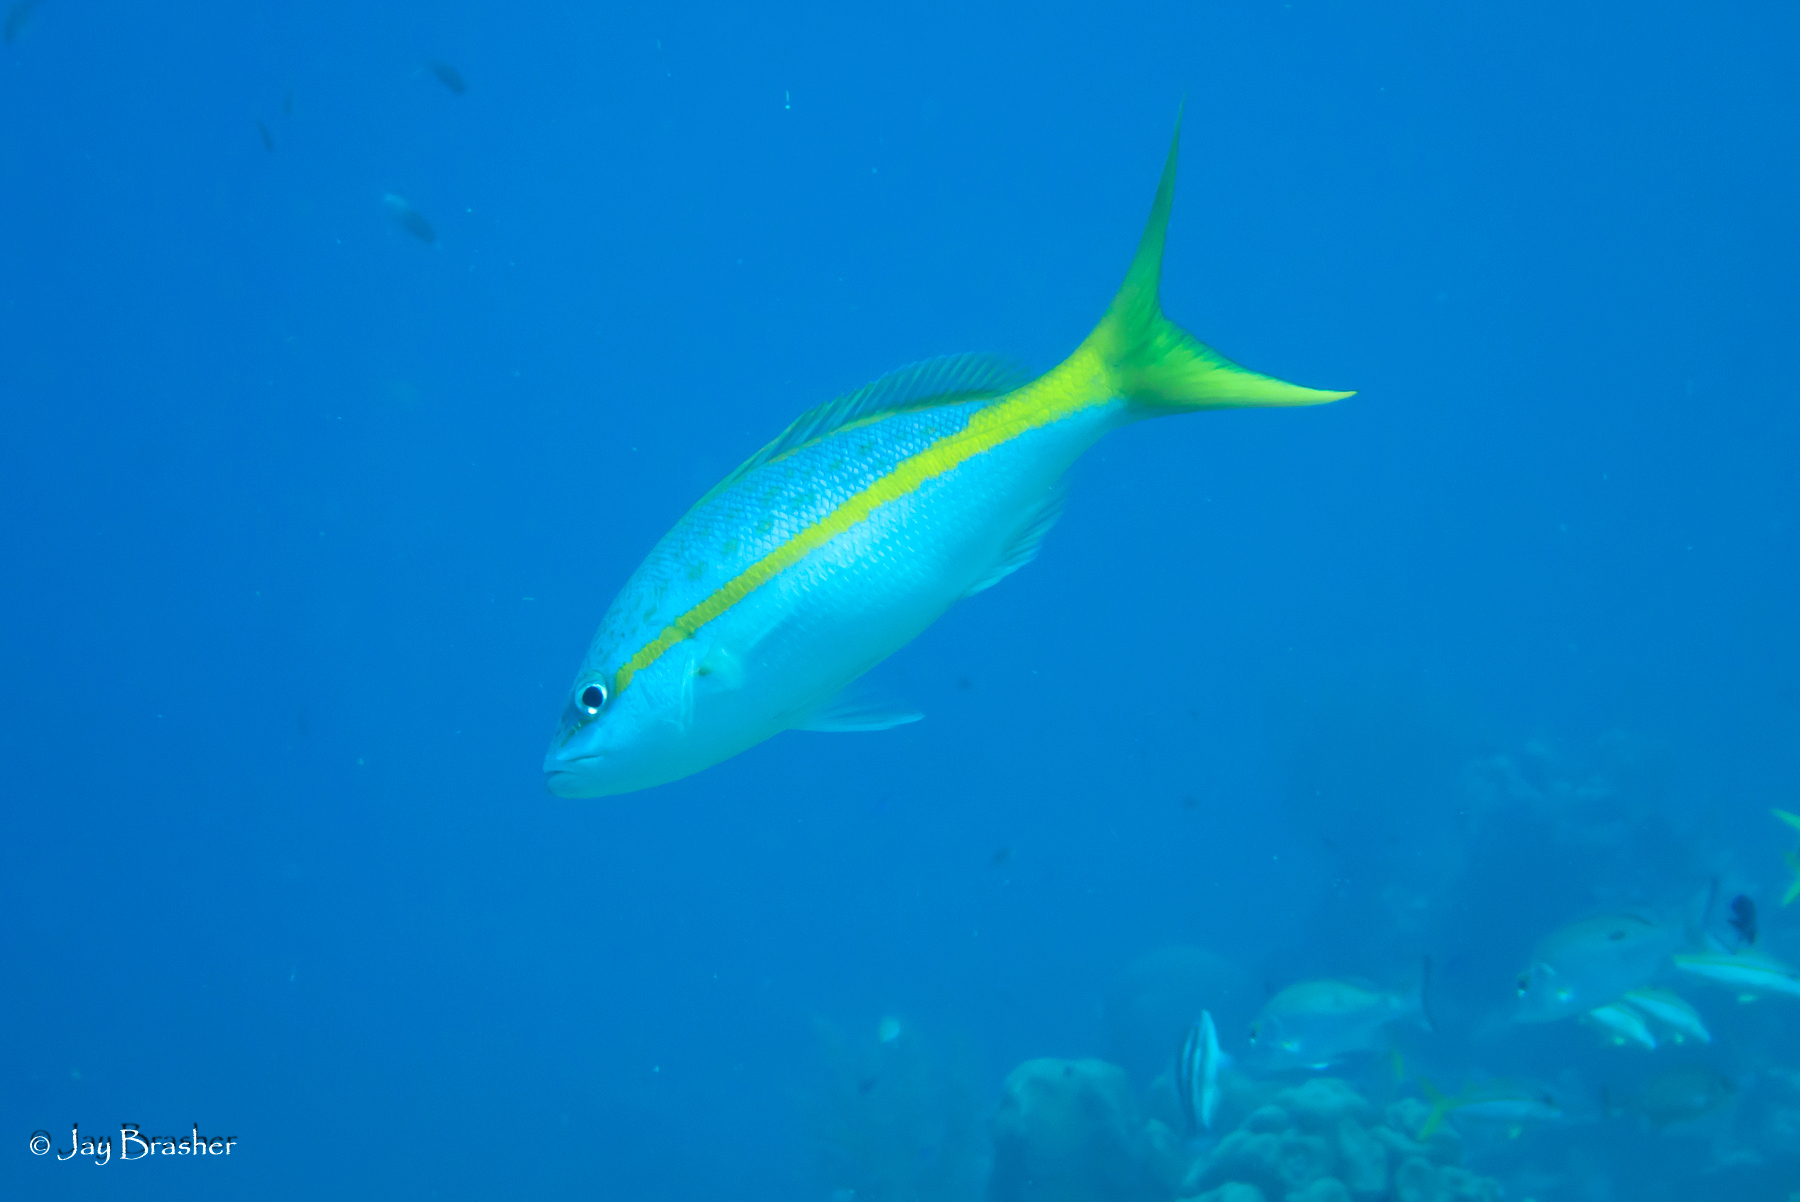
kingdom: Animalia
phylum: Chordata
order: Perciformes
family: Lutjanidae
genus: Ocyurus
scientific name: Ocyurus chrysurus
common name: Yellowtail snapper
